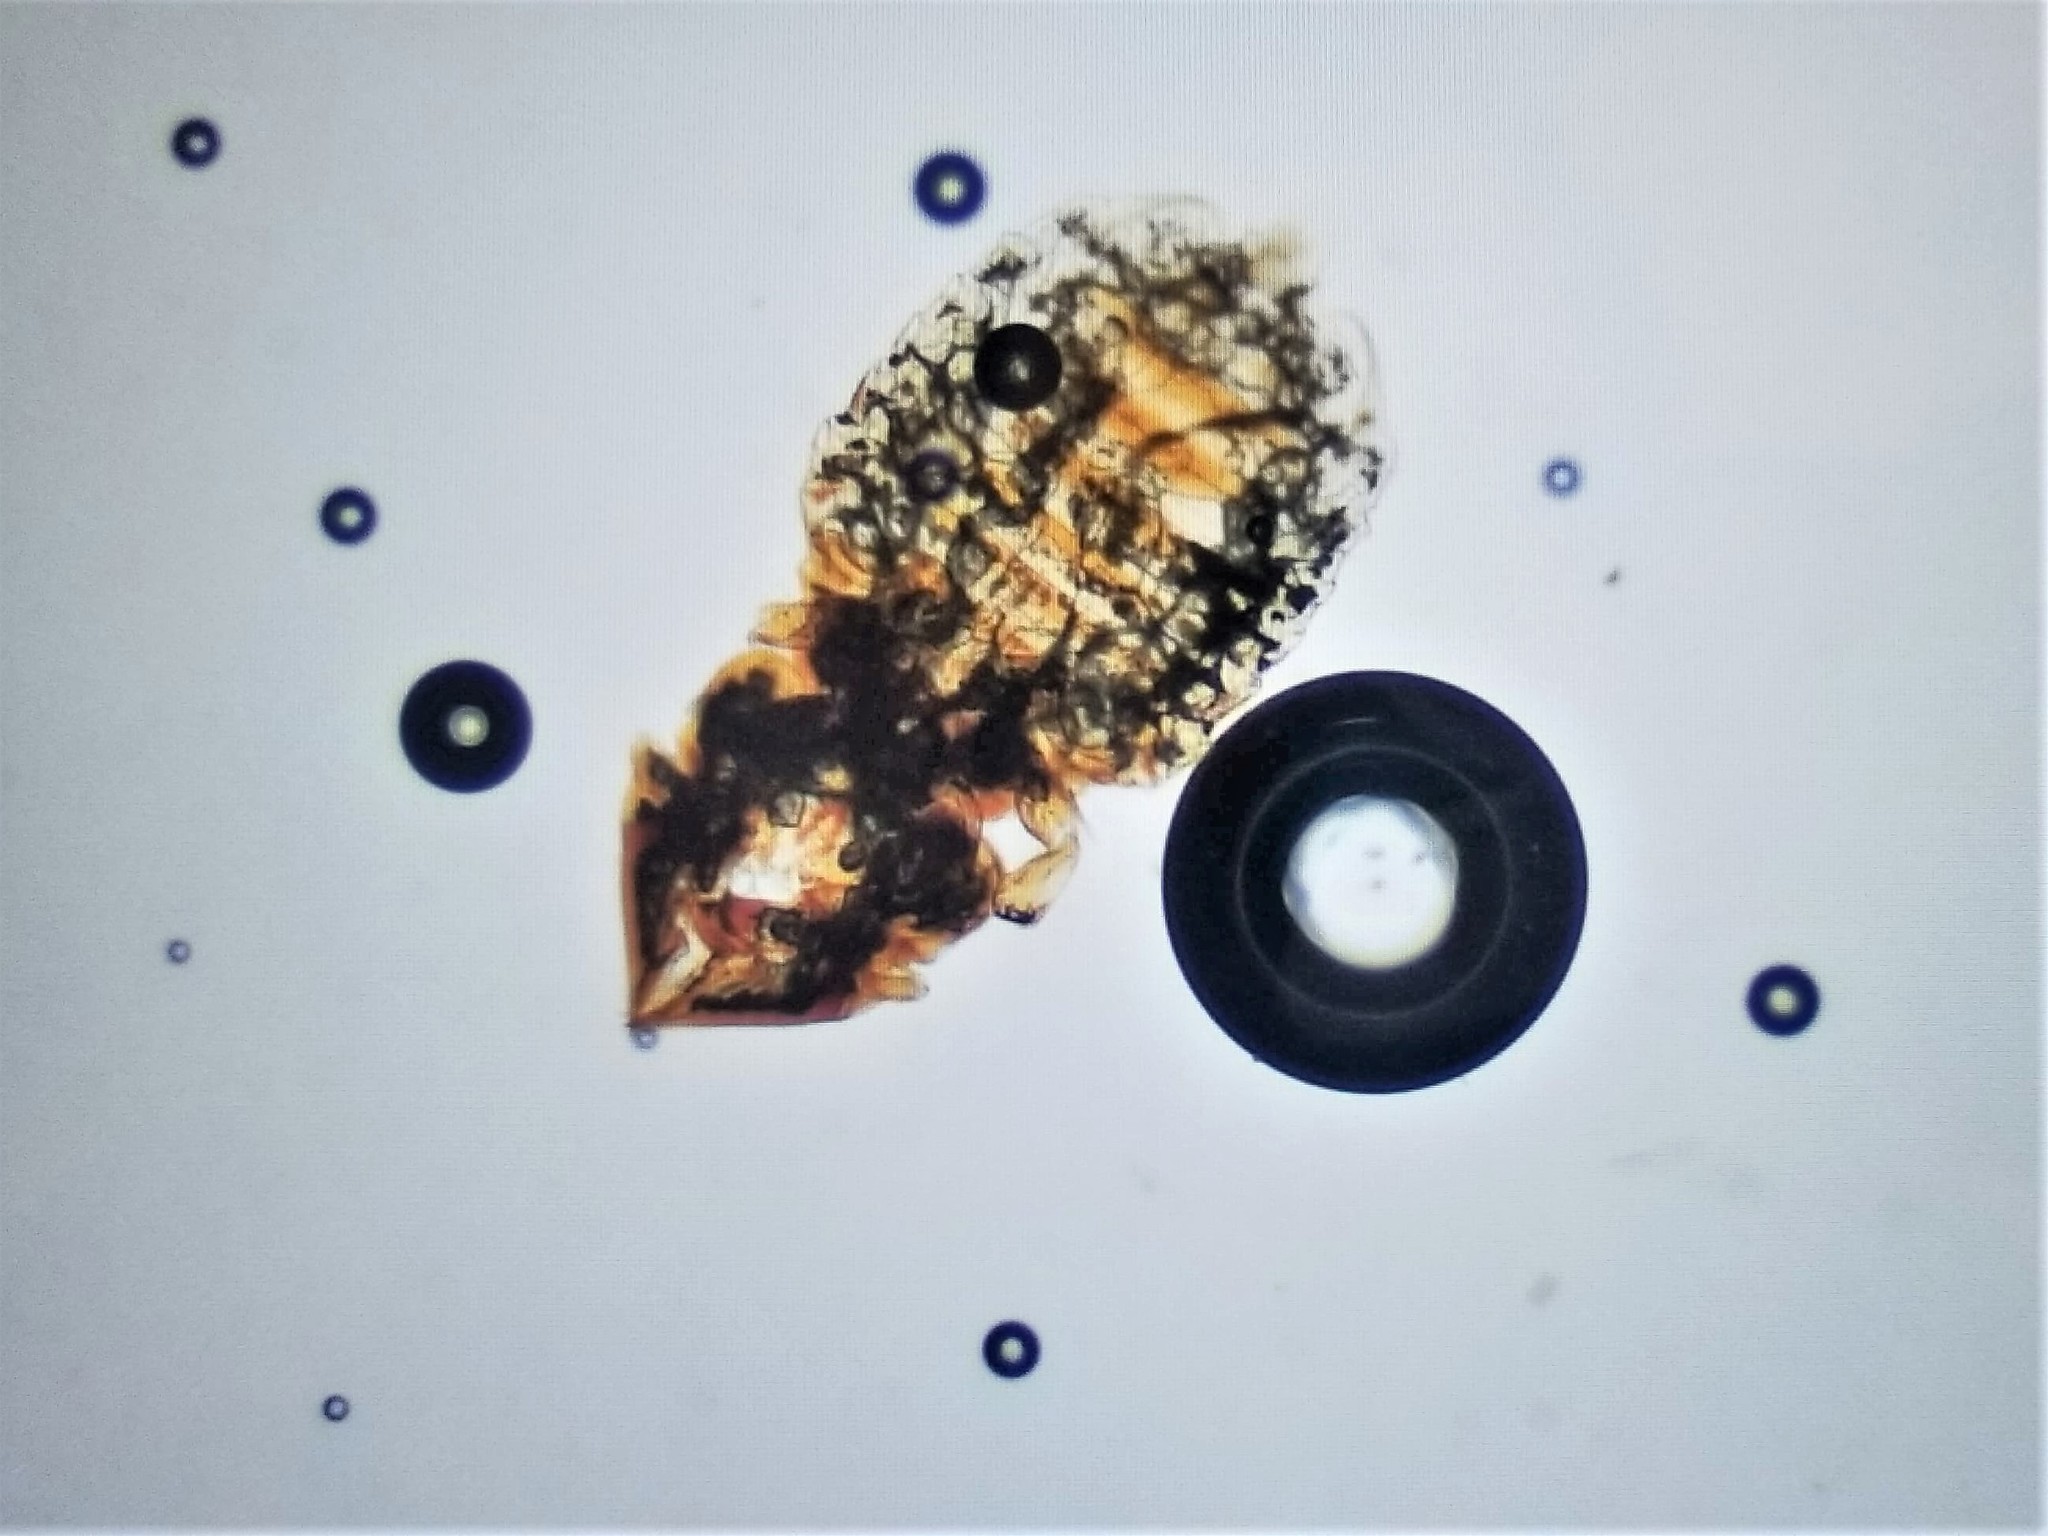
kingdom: Animalia
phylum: Arthropoda
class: Insecta
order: Psocodea
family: Trichodectidae
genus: Felicola
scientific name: Felicola subrostratus
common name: Louse
